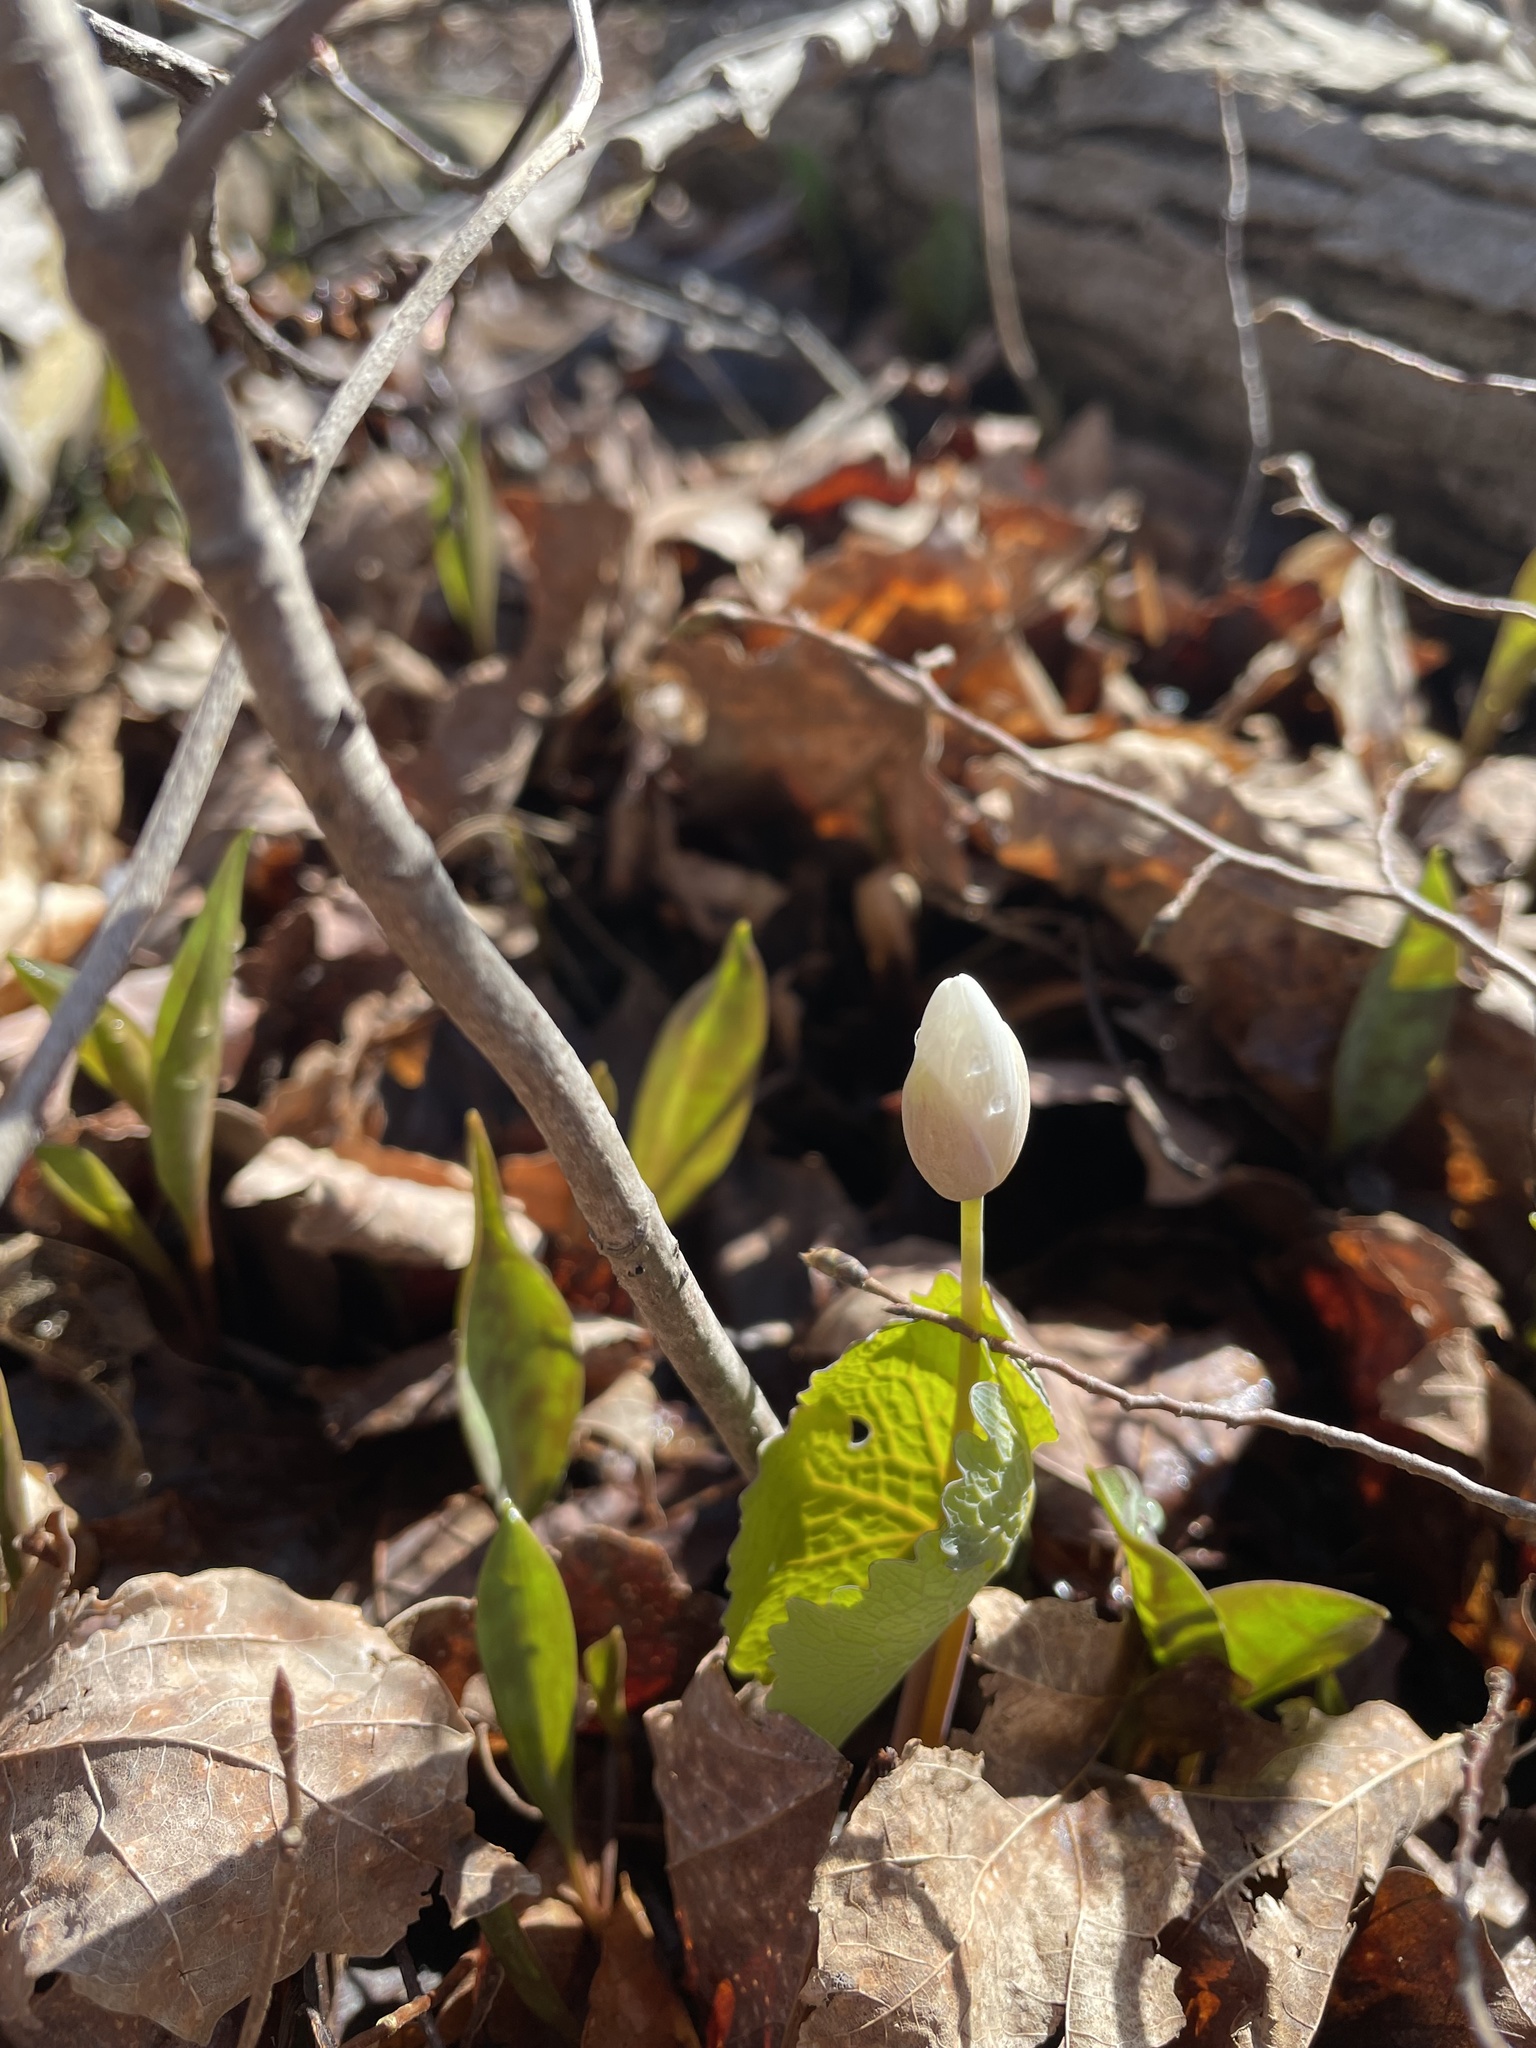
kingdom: Plantae
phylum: Tracheophyta
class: Magnoliopsida
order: Ranunculales
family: Papaveraceae
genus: Sanguinaria
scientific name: Sanguinaria canadensis
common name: Bloodroot
